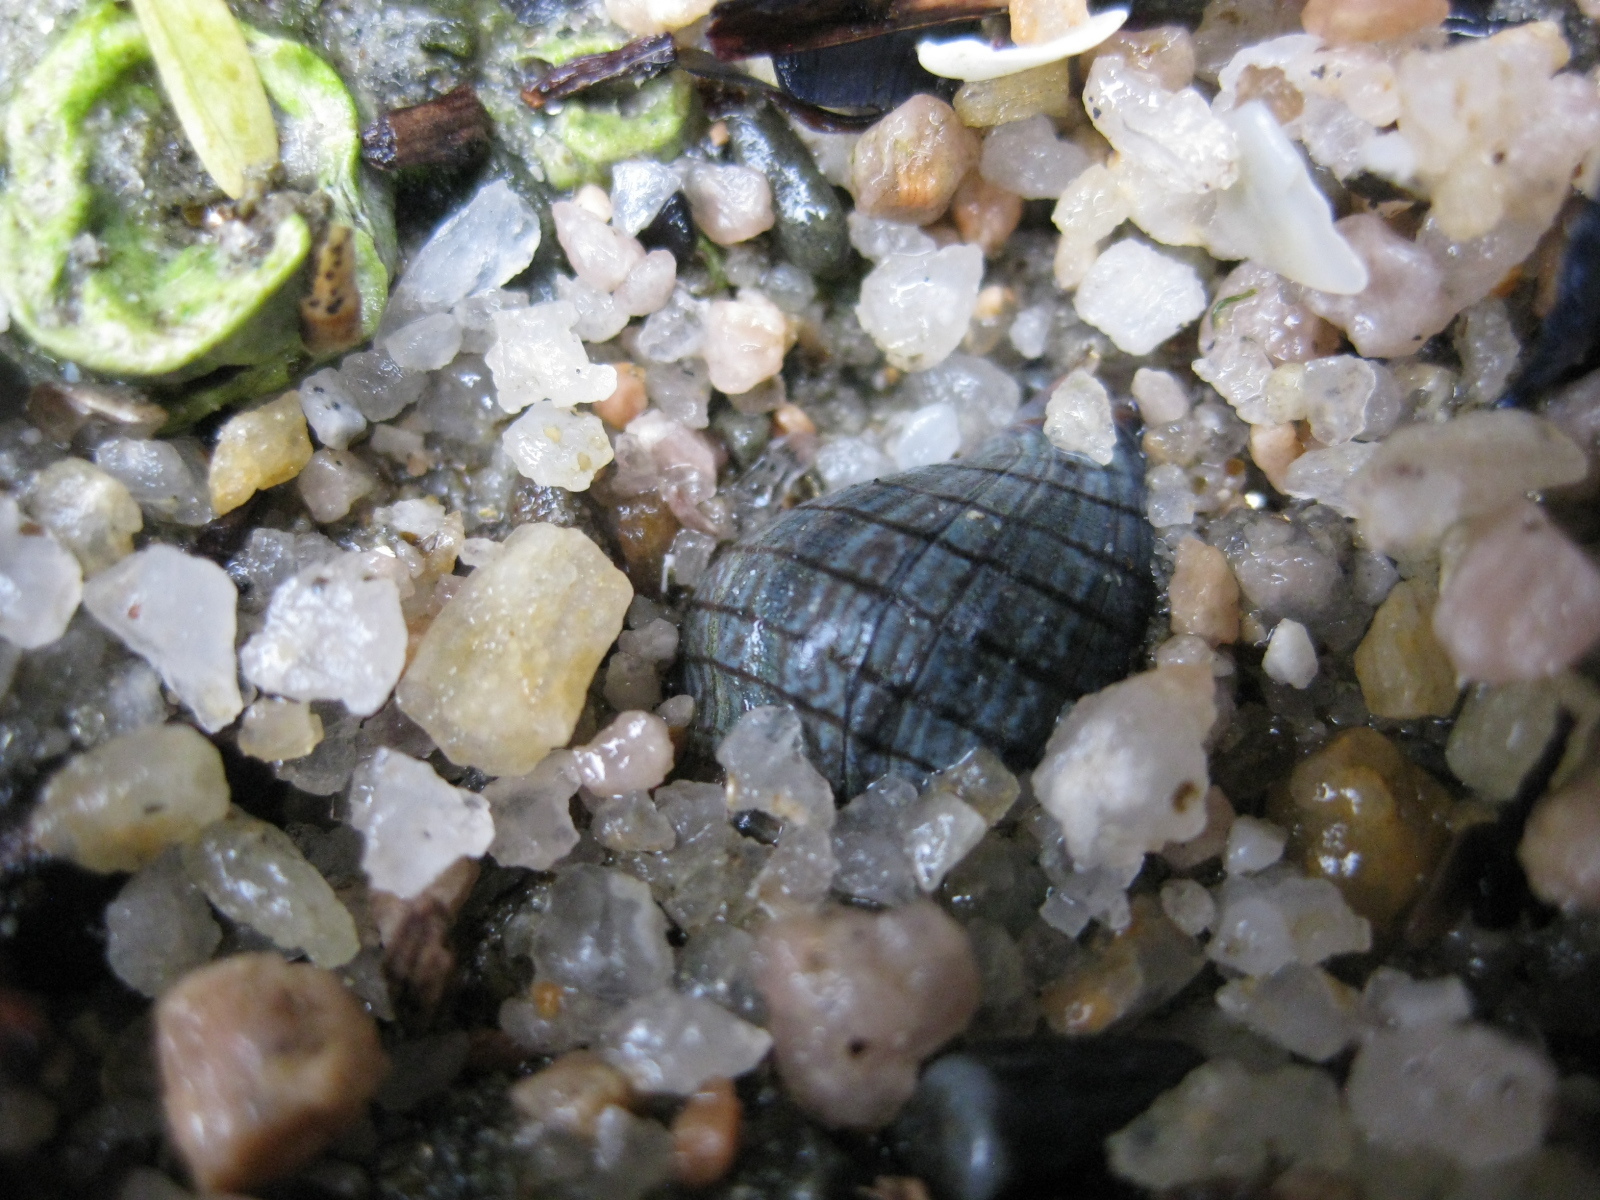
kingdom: Animalia
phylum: Mollusca
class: Gastropoda
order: Neogastropoda
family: Cominellidae
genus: Cominella
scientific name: Cominella virgata
